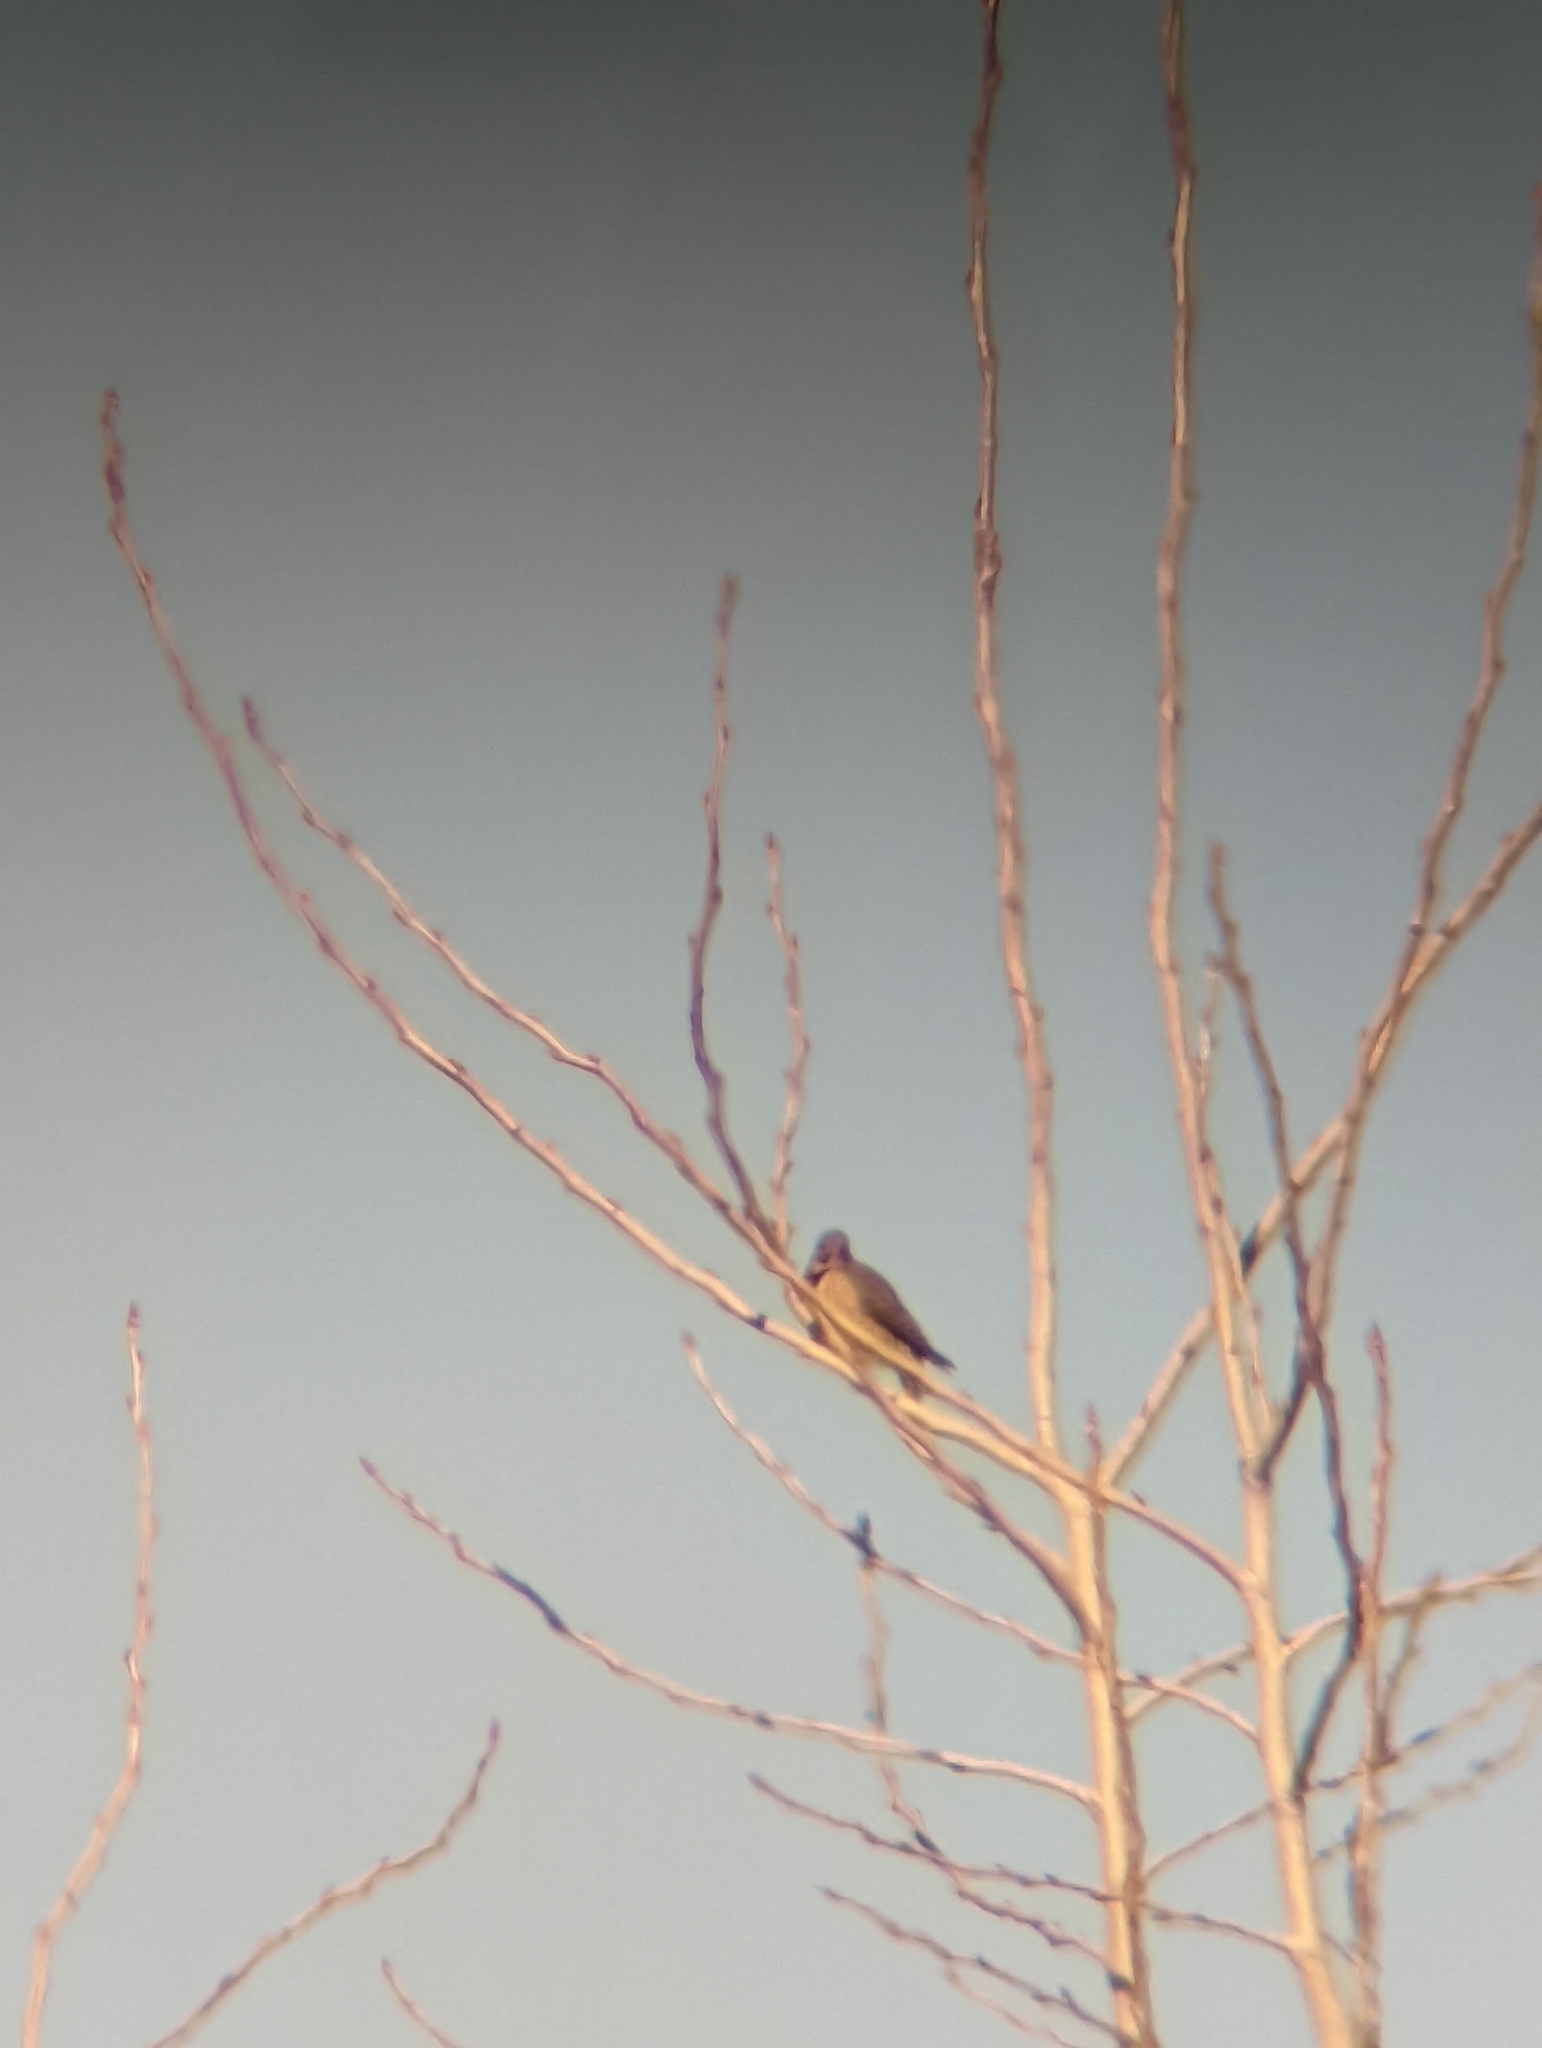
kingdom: Animalia
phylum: Chordata
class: Aves
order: Piciformes
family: Picidae
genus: Colaptes
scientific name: Colaptes auratus
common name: Northern flicker
